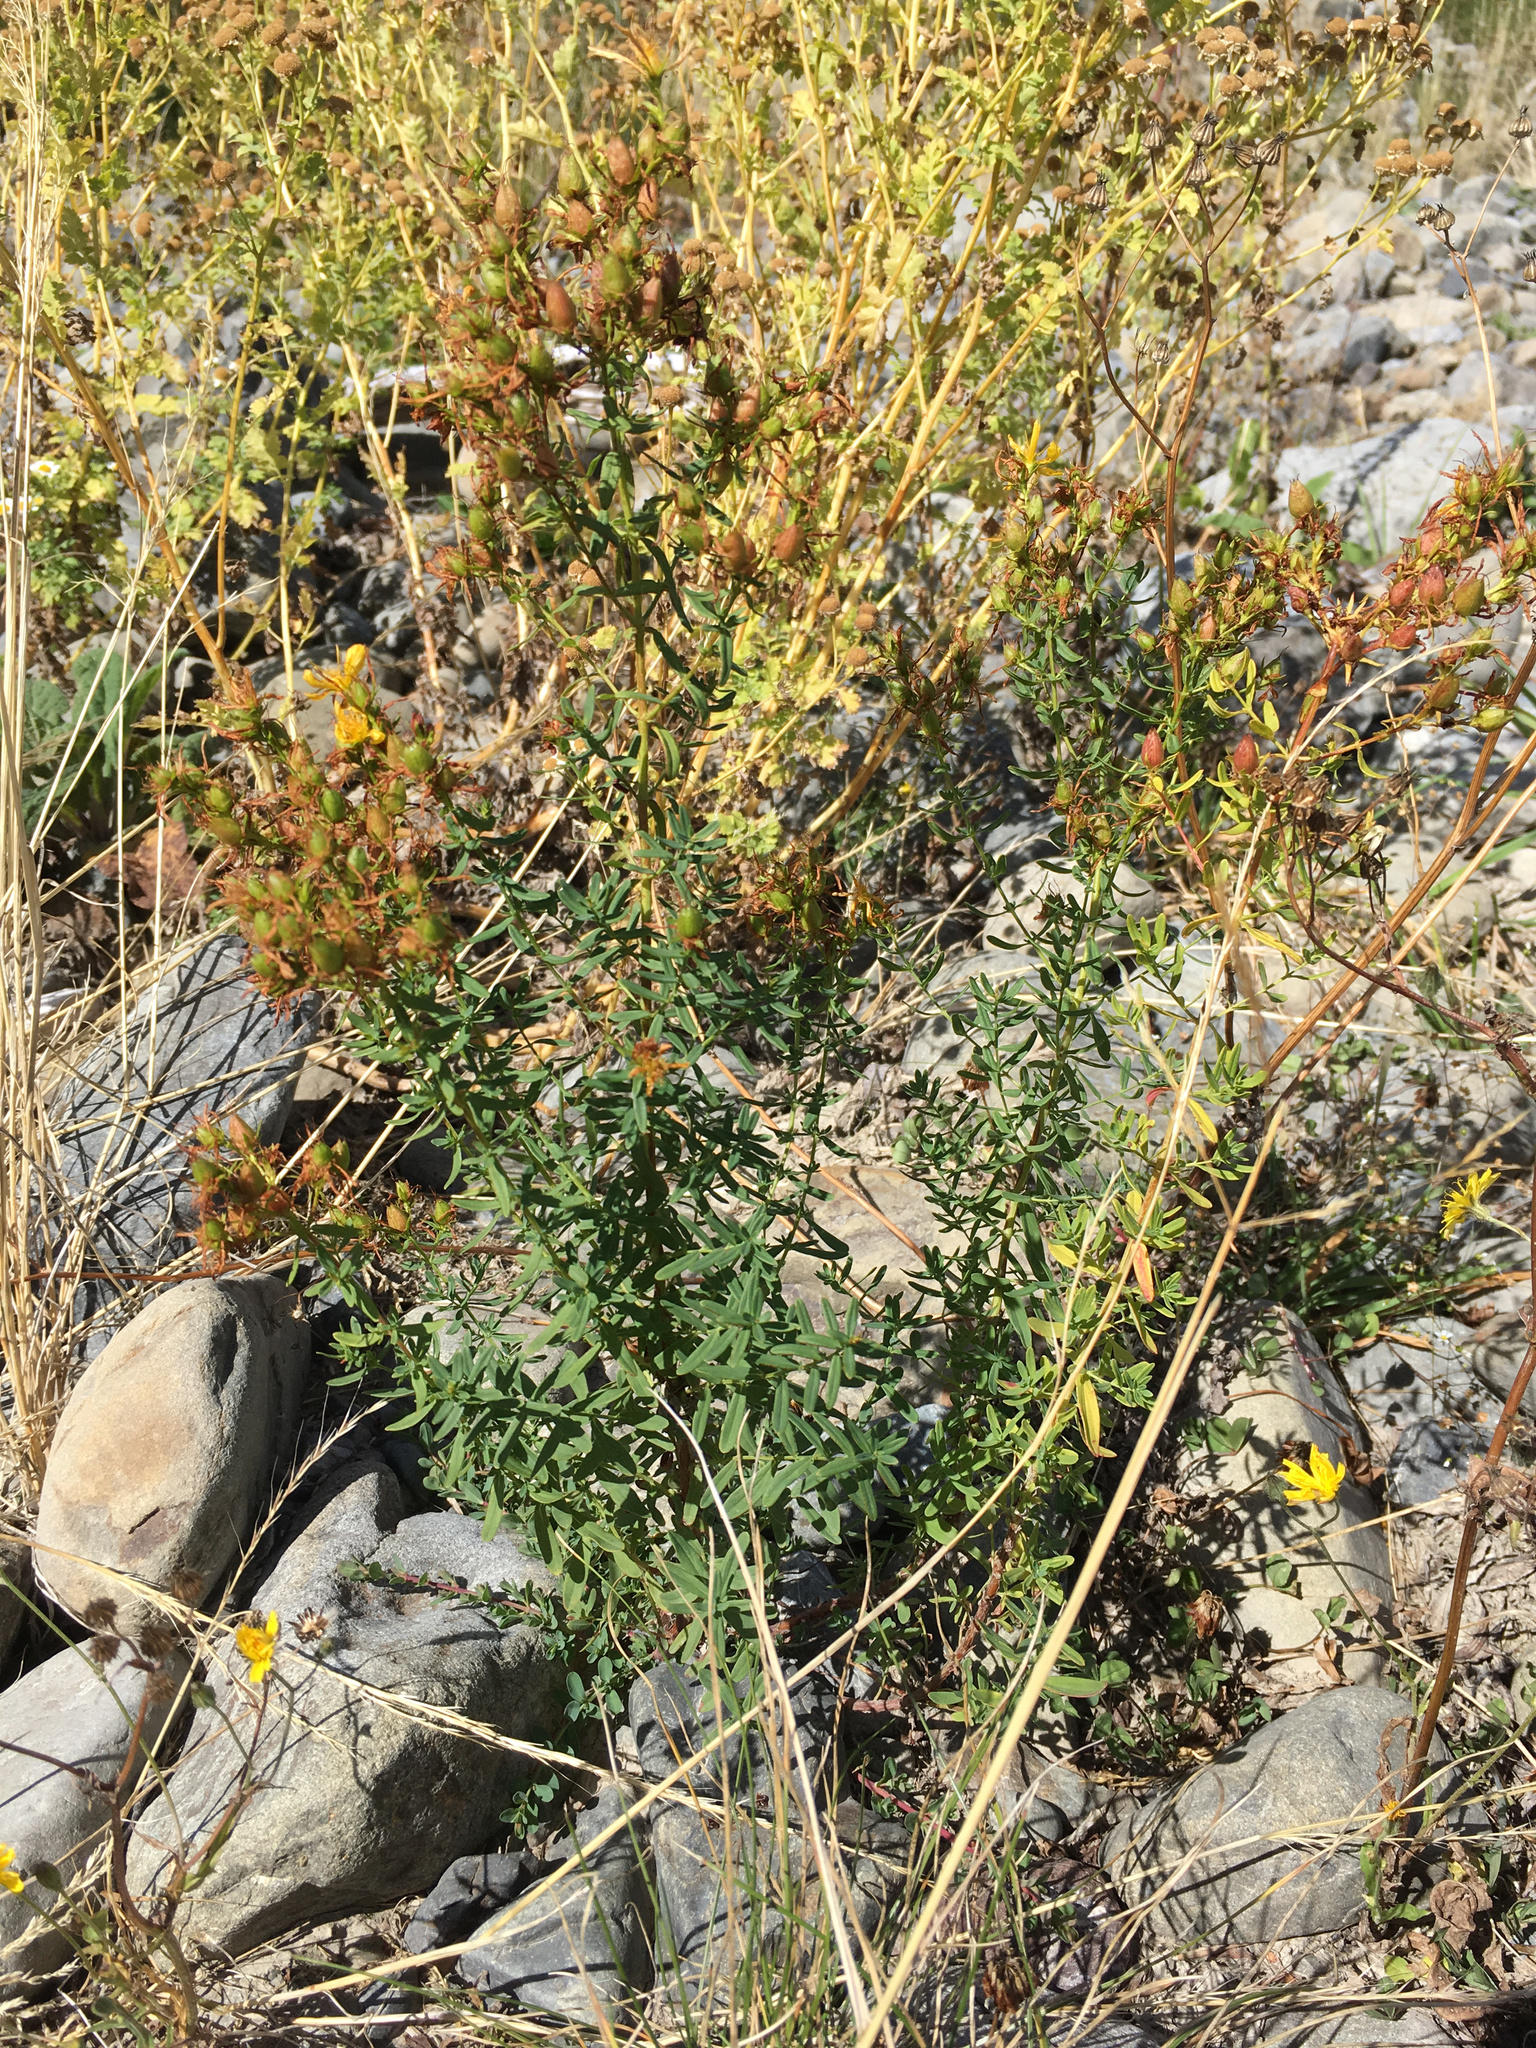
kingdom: Plantae
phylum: Tracheophyta
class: Magnoliopsida
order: Malpighiales
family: Hypericaceae
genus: Hypericum
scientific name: Hypericum perforatum
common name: Common st. johnswort
